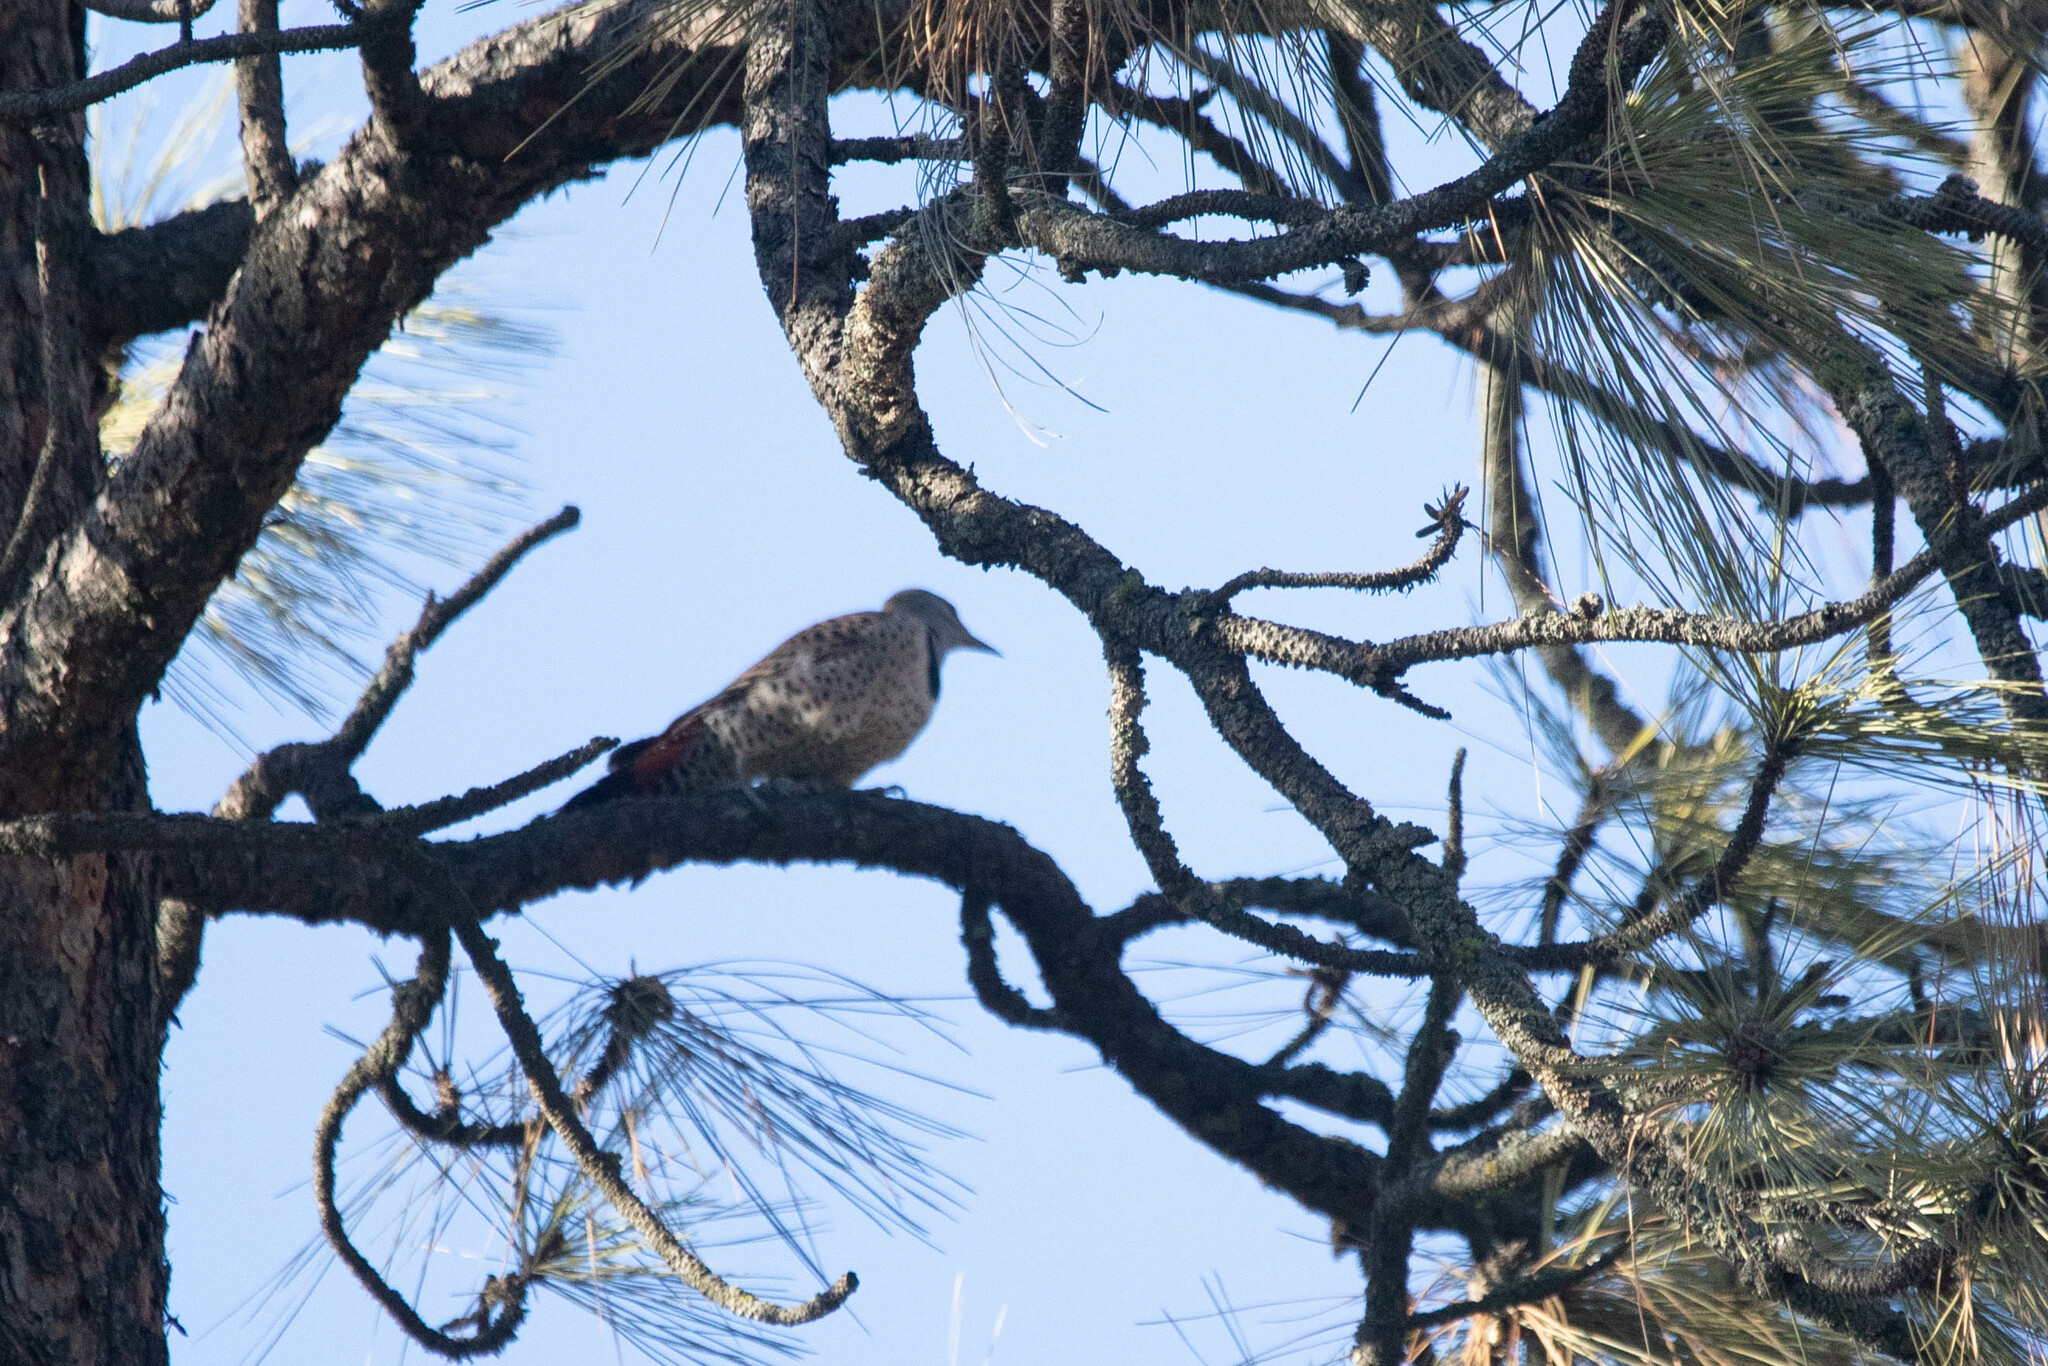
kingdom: Animalia
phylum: Chordata
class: Aves
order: Piciformes
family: Picidae
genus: Colaptes
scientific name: Colaptes auratus
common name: Northern flicker
